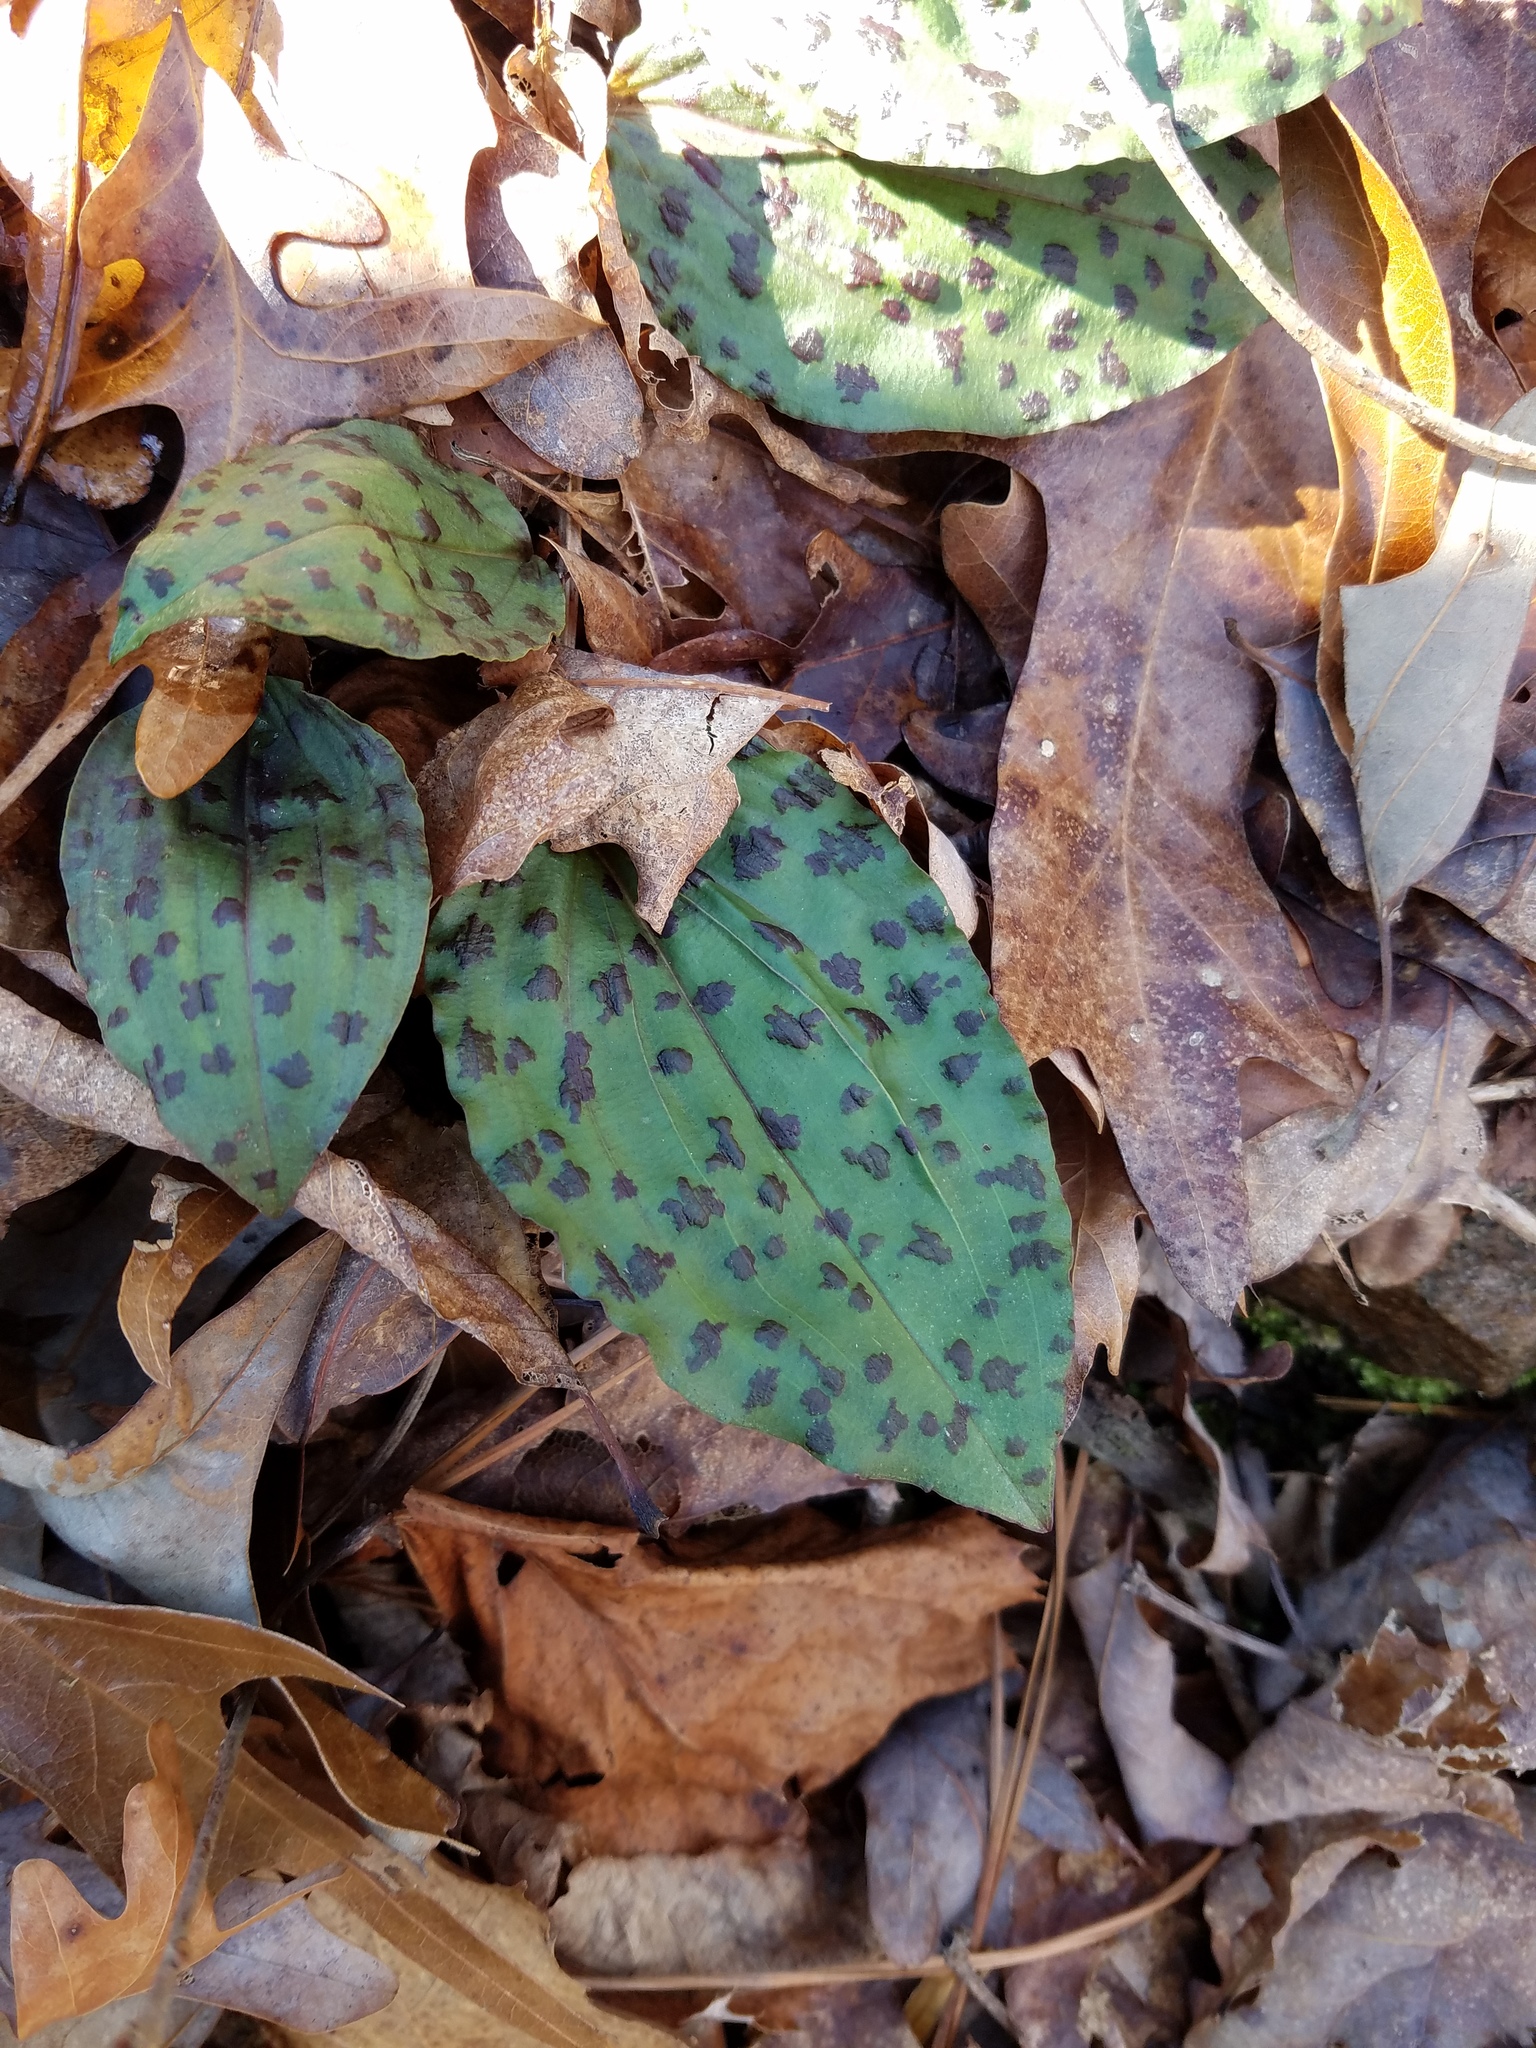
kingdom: Plantae
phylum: Tracheophyta
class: Liliopsida
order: Asparagales
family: Orchidaceae
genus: Tipularia
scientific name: Tipularia discolor
